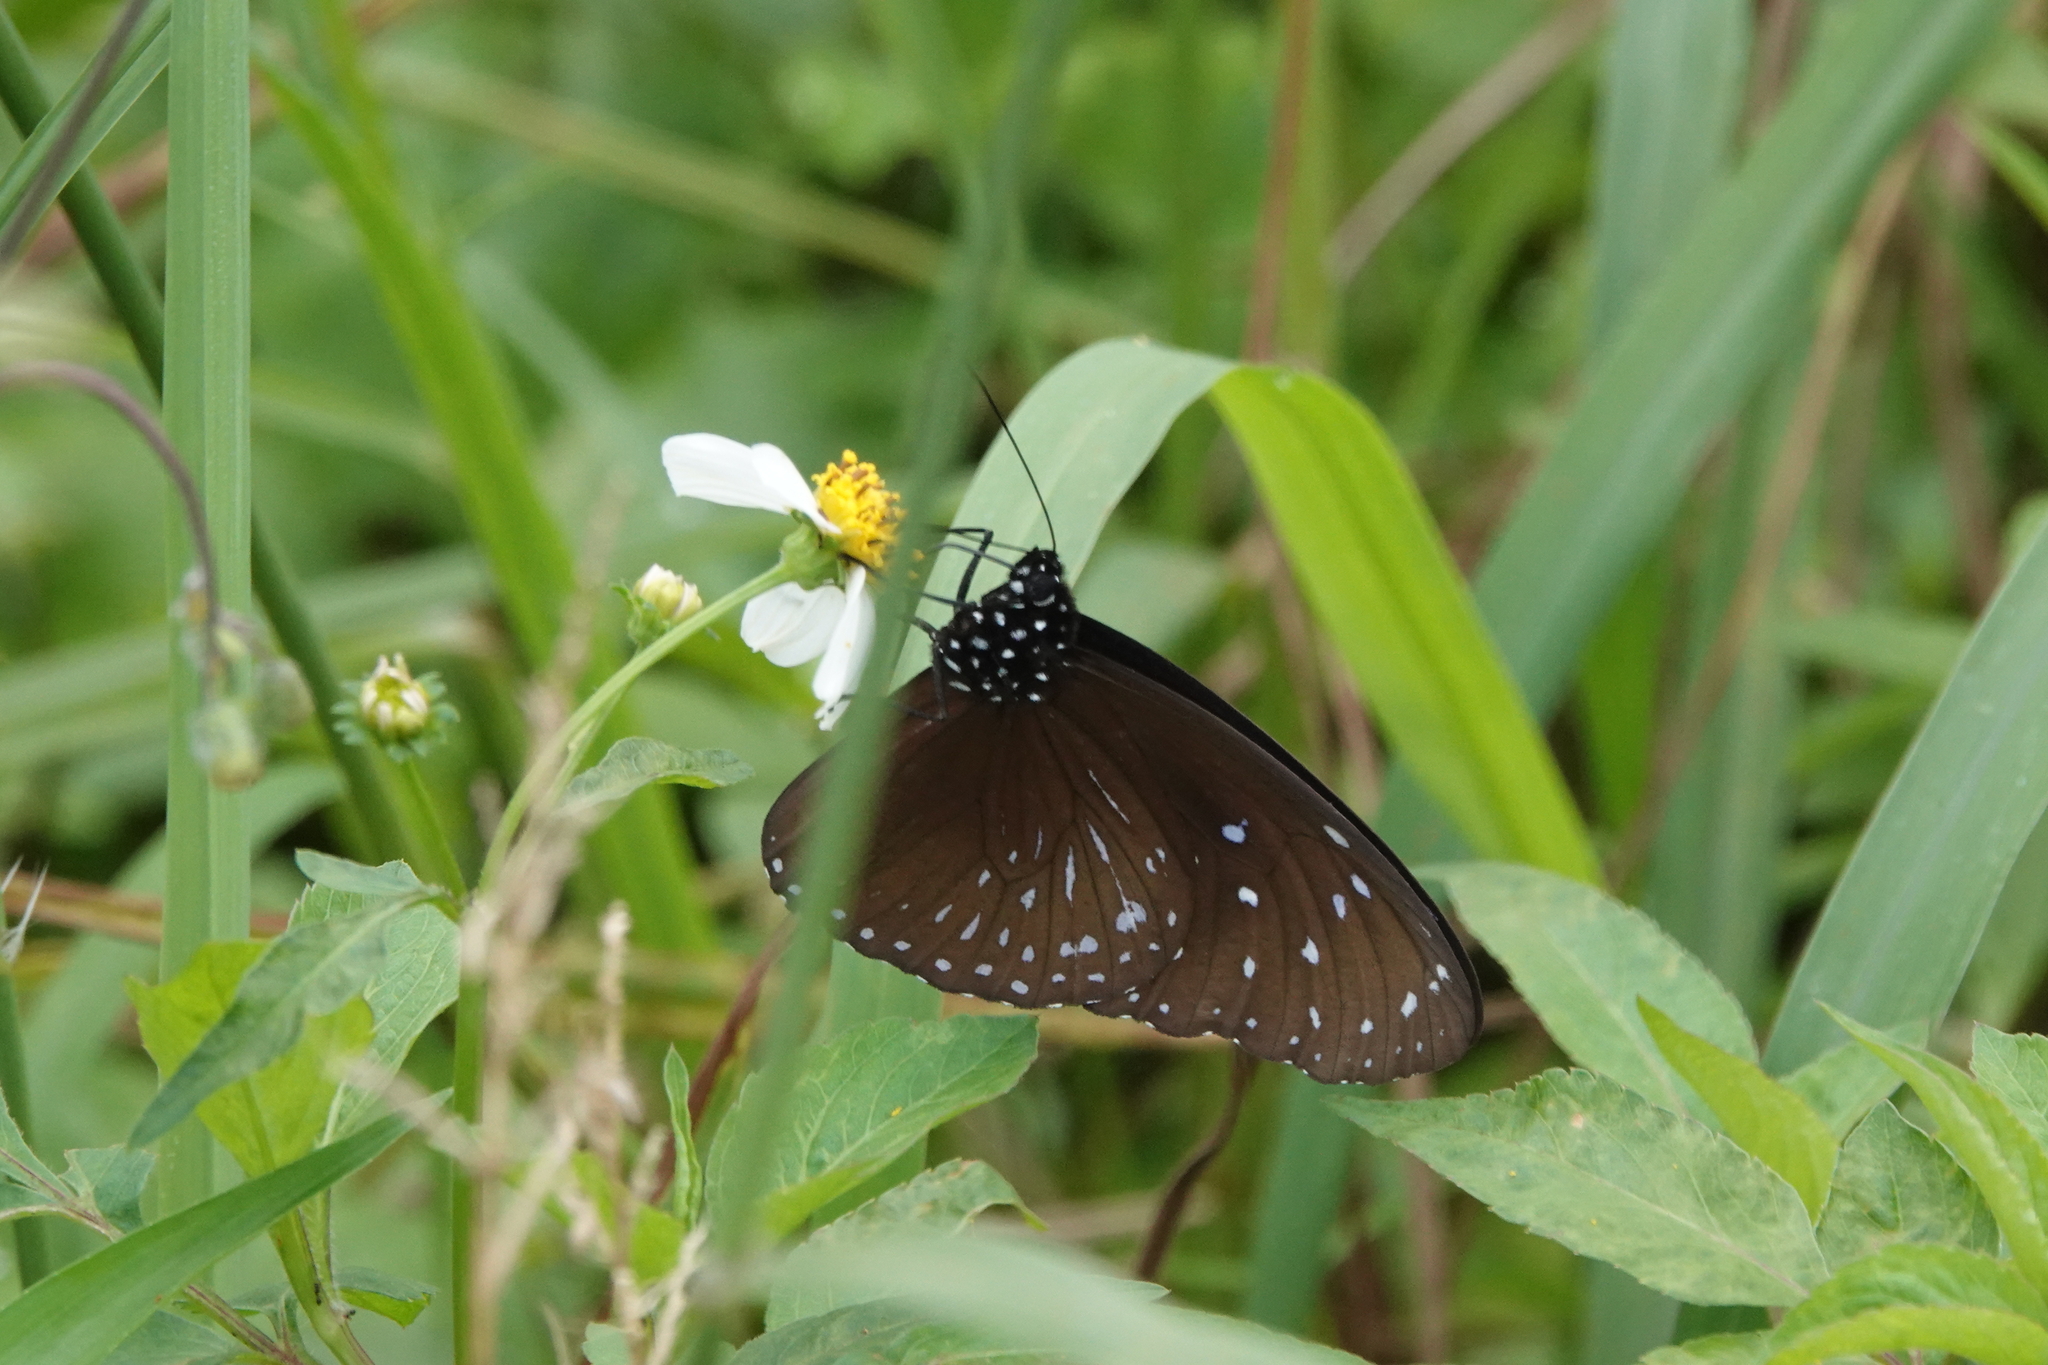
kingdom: Animalia
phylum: Arthropoda
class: Insecta
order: Lepidoptera
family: Nymphalidae
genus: Euploea
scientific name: Euploea mulciber
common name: Striped blue crow butterfly
